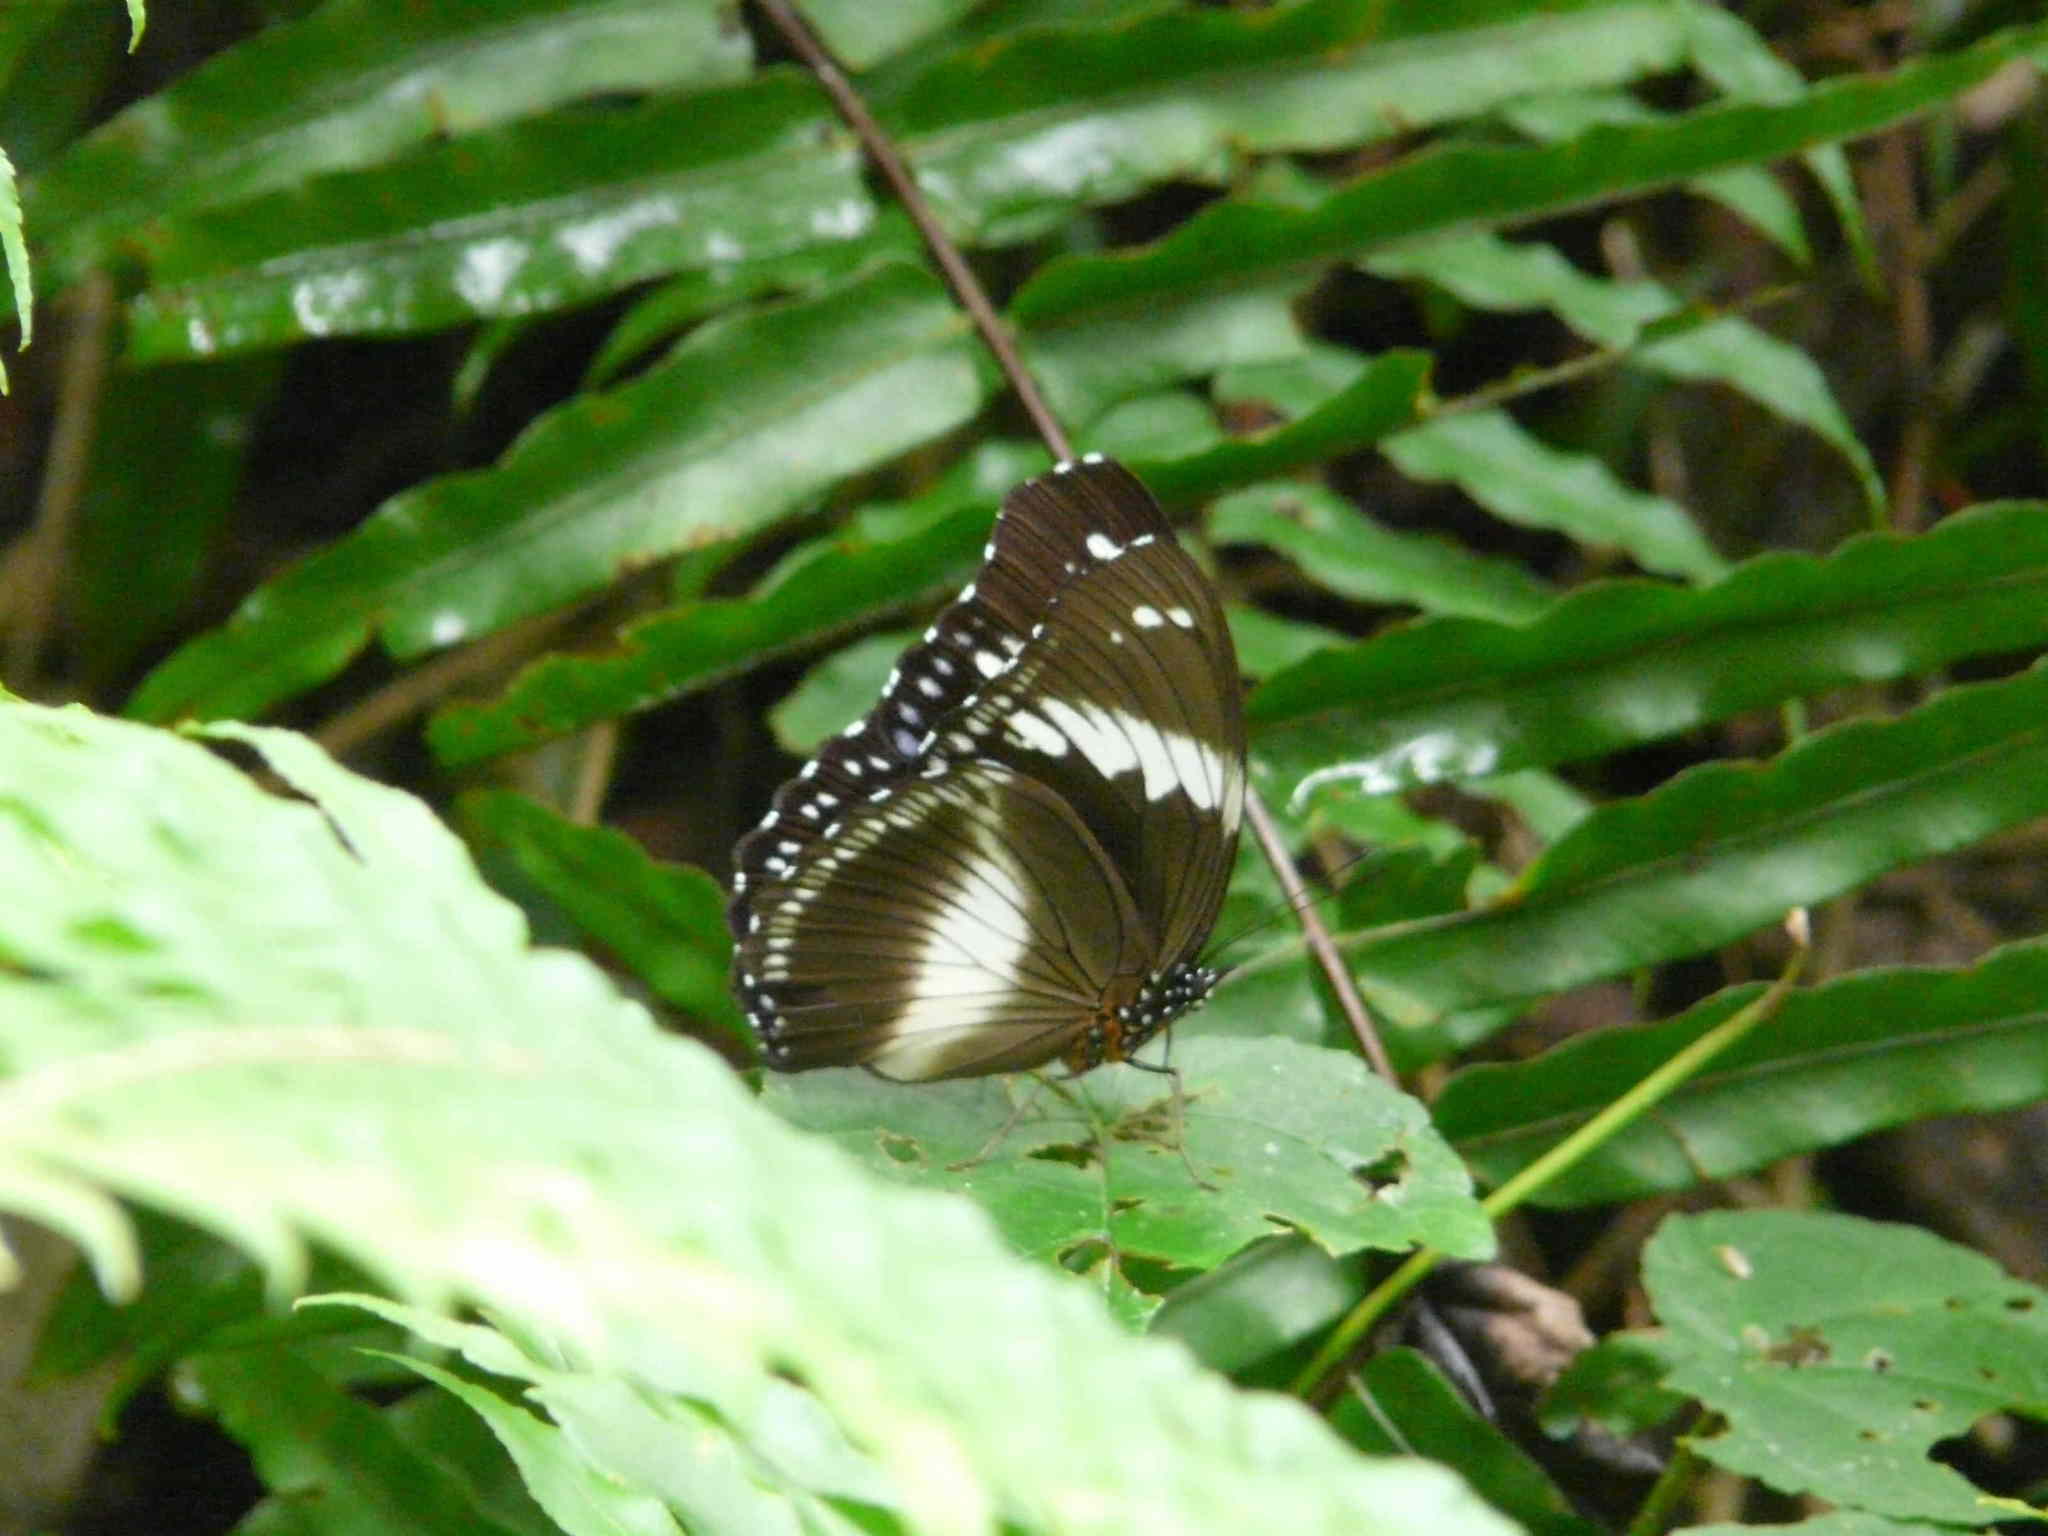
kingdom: Animalia
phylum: Arthropoda
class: Insecta
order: Lepidoptera
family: Nymphalidae
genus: Hypolimnas
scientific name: Hypolimnas salmacis
